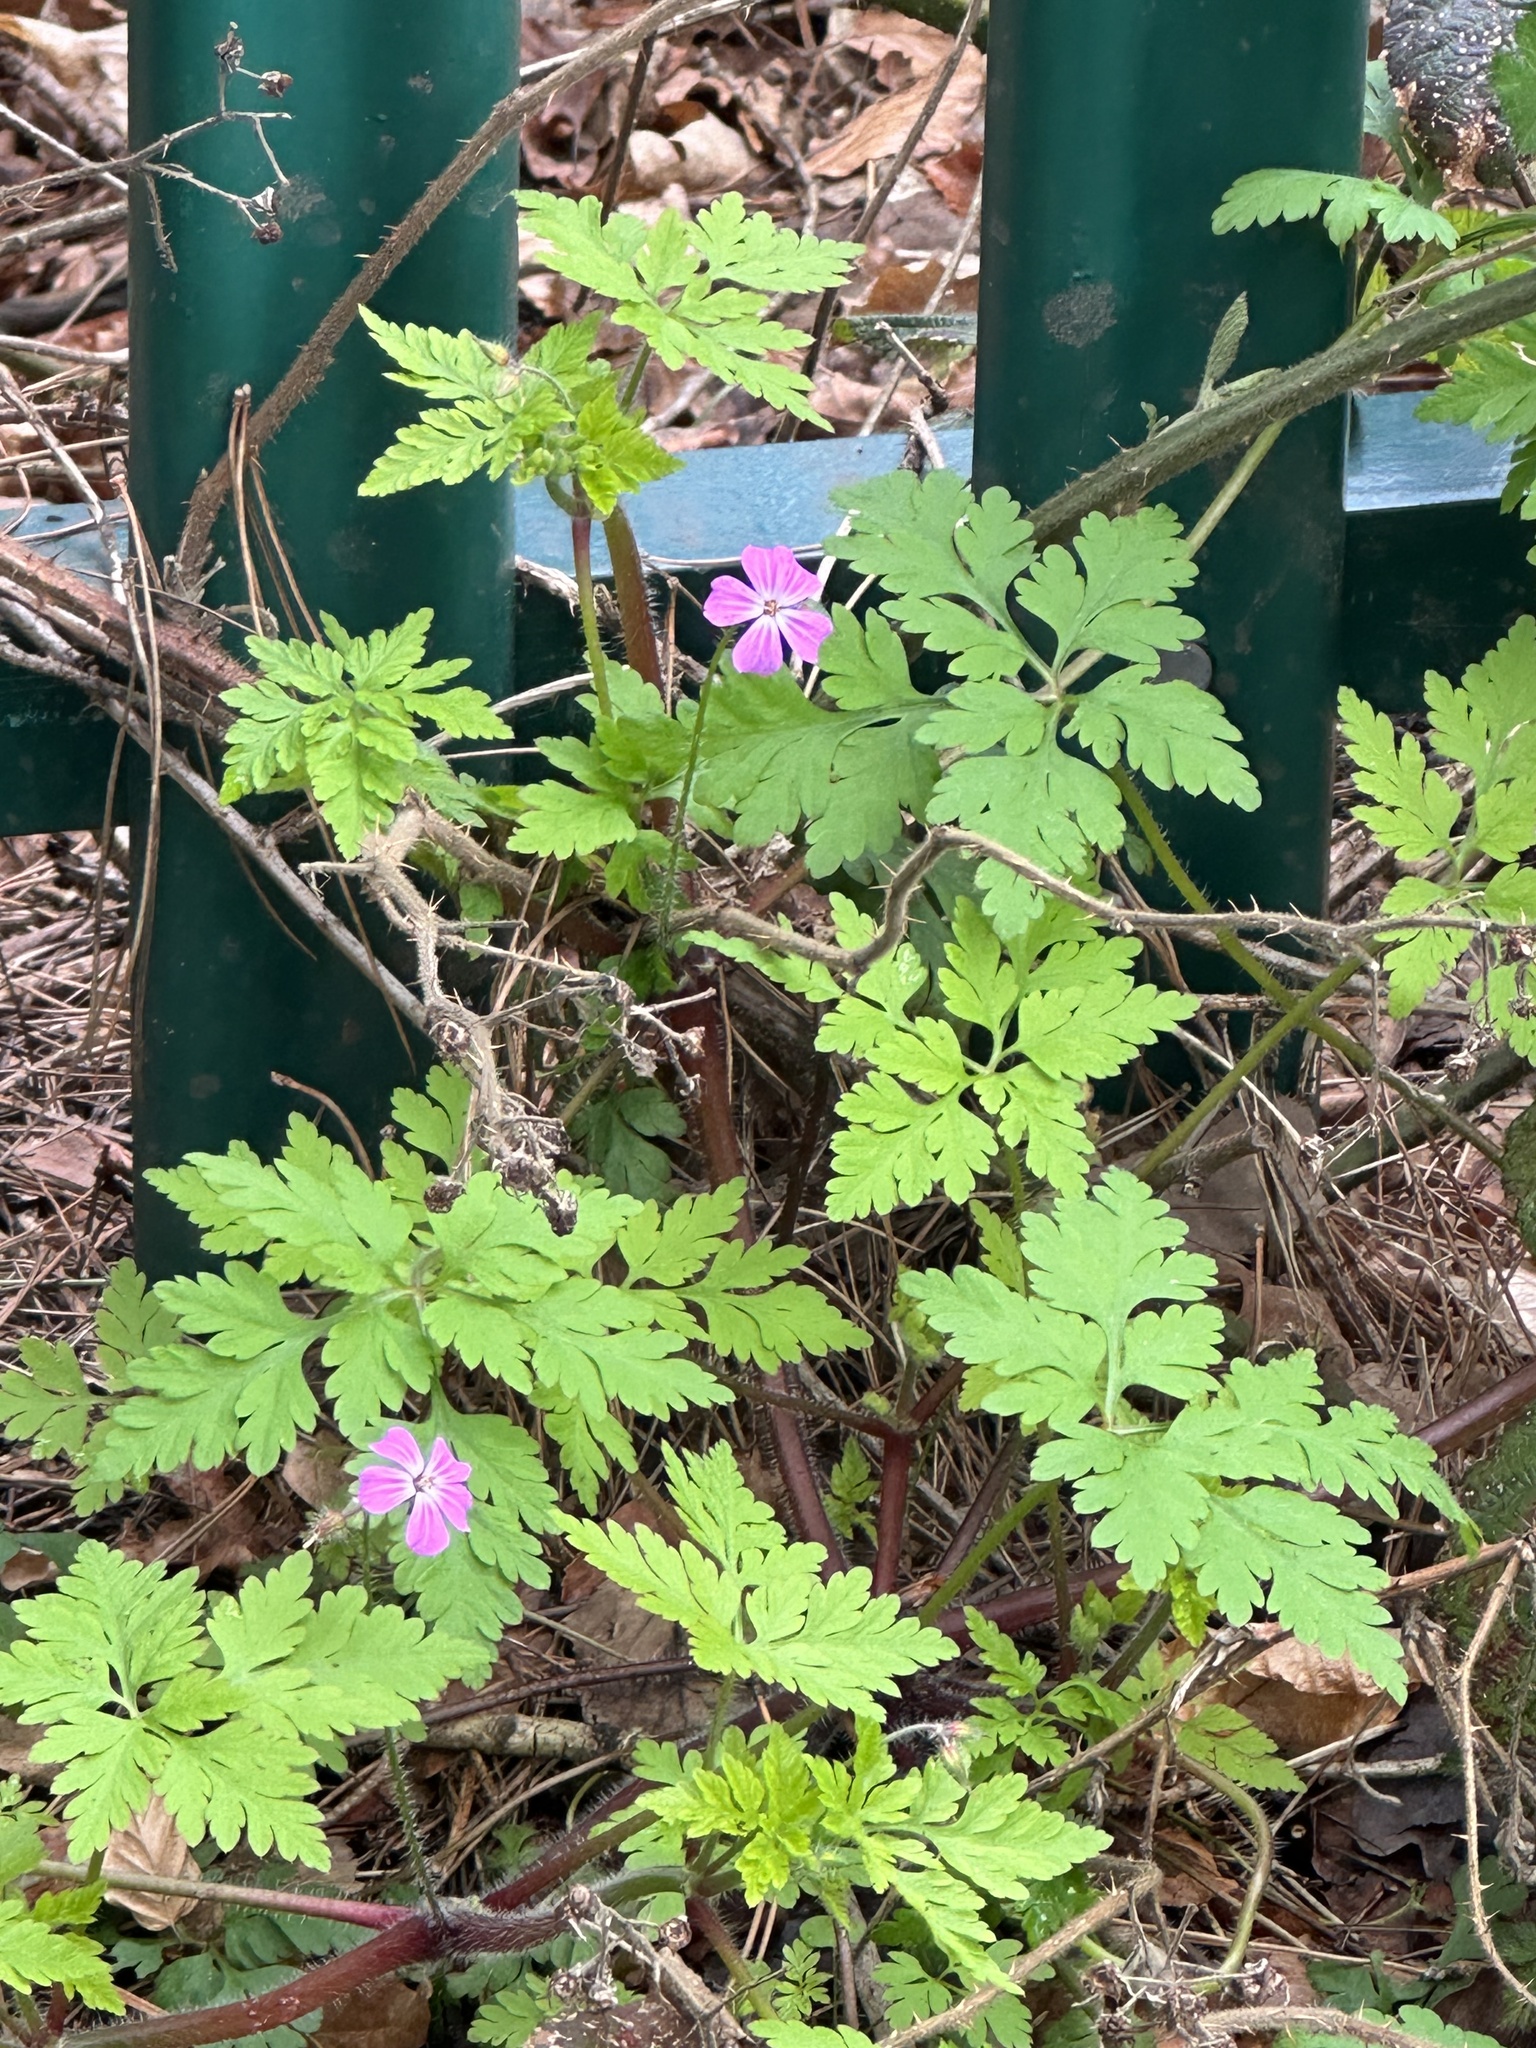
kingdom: Plantae
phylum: Tracheophyta
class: Magnoliopsida
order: Geraniales
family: Geraniaceae
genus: Geranium
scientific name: Geranium robertianum
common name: Herb-robert
